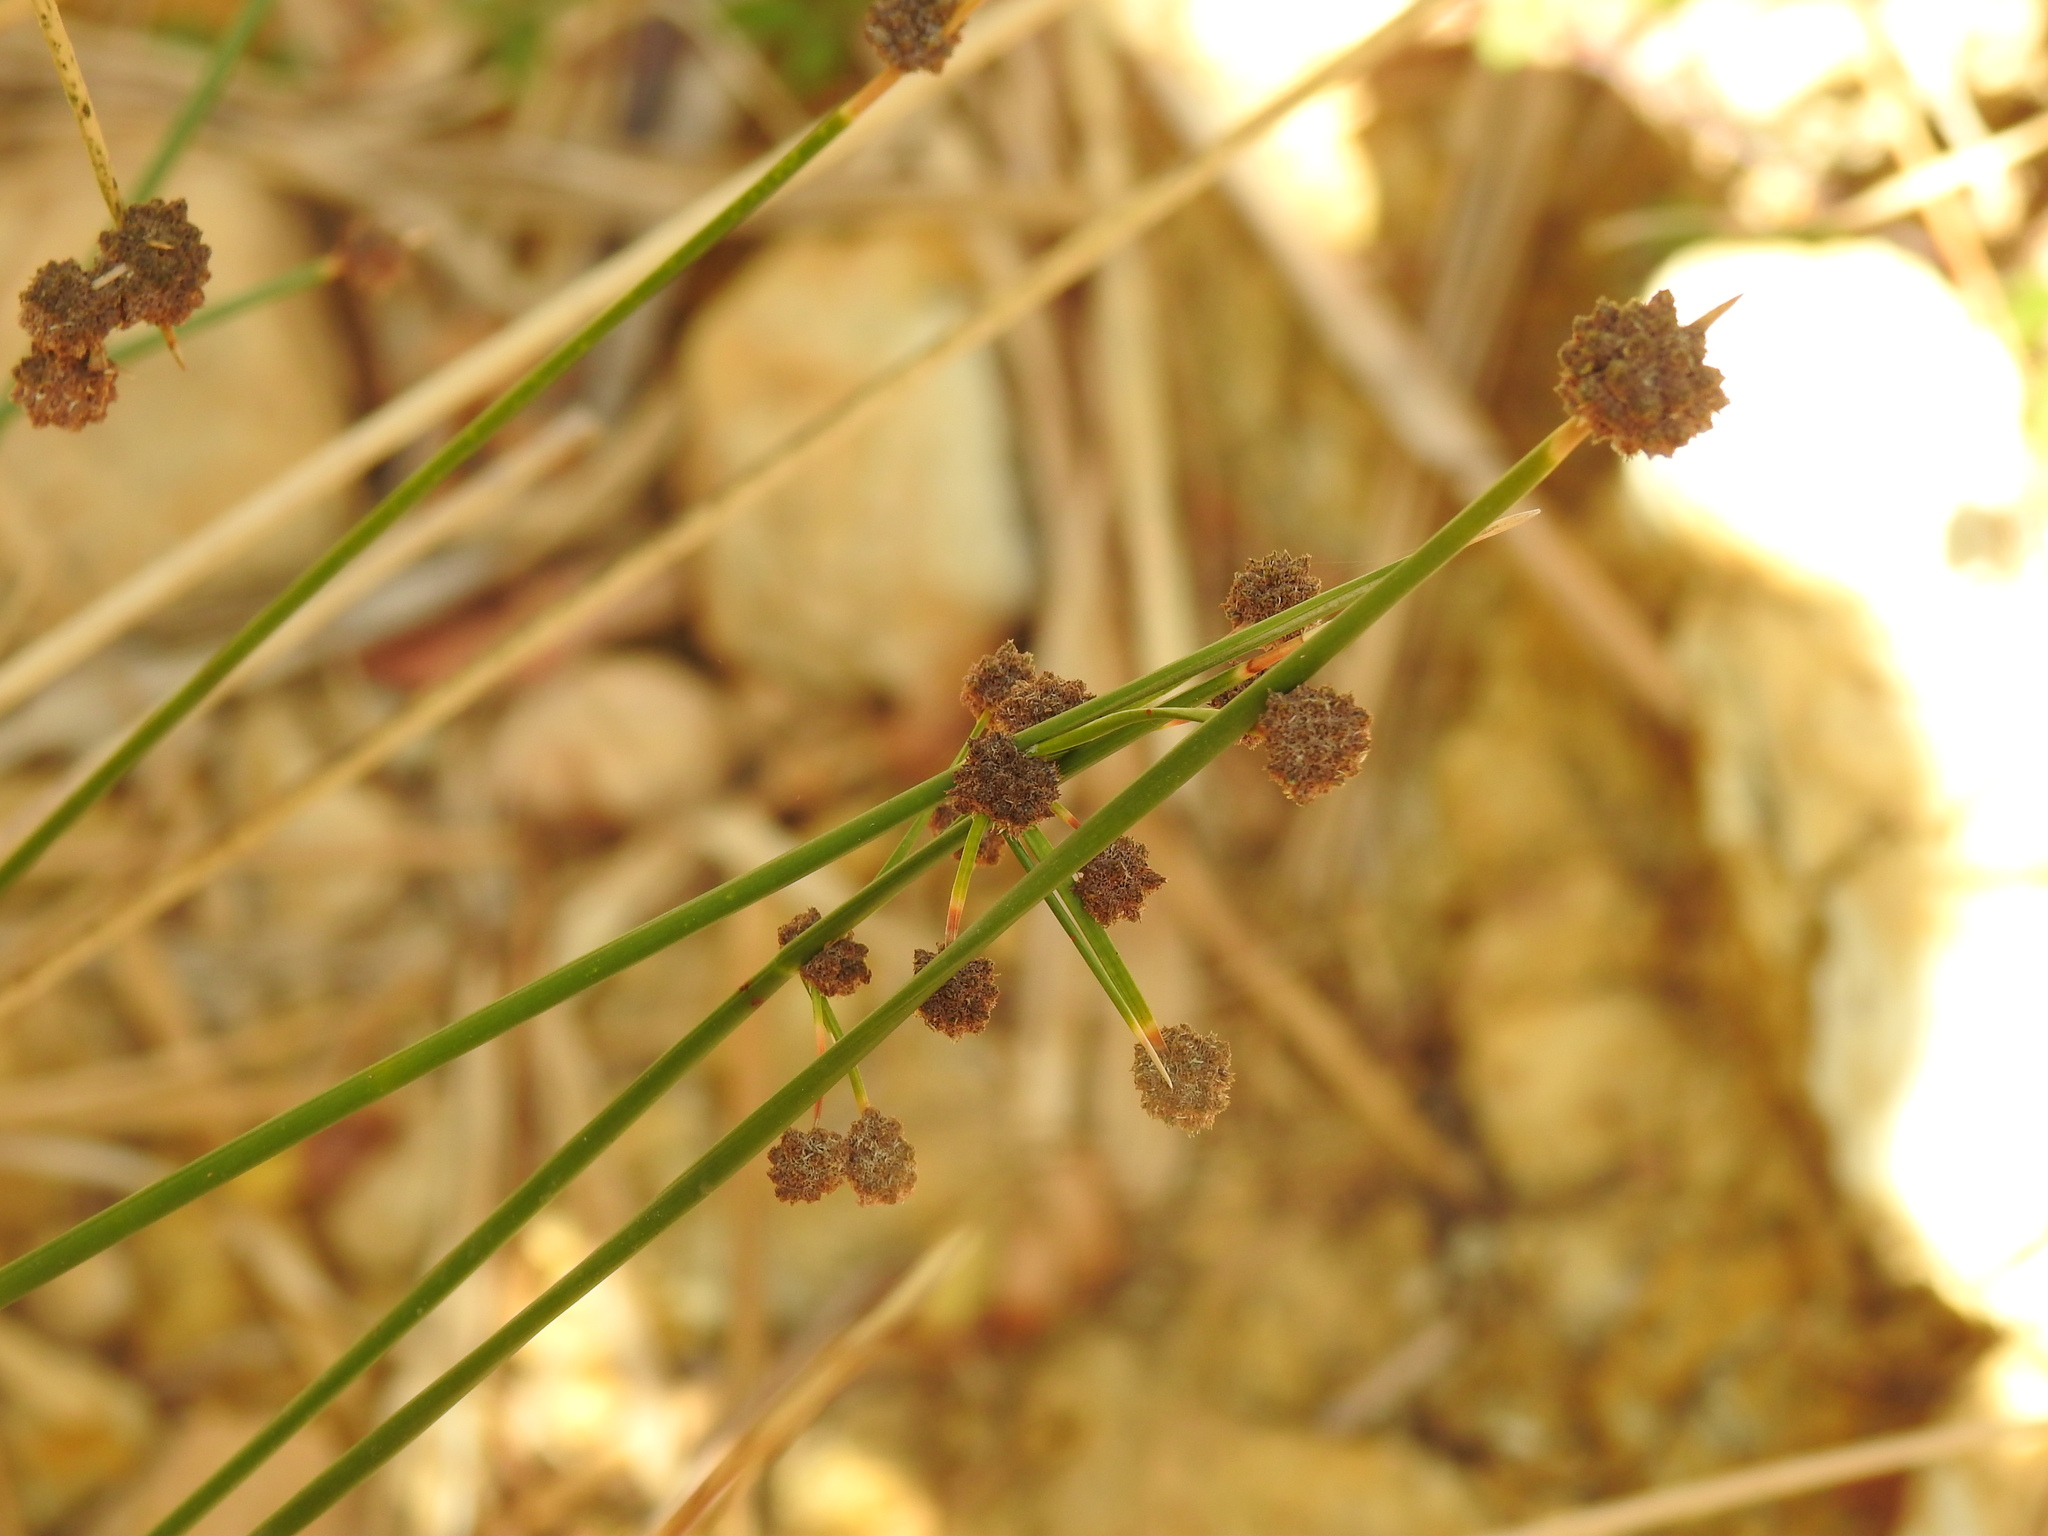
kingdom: Plantae
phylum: Tracheophyta
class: Liliopsida
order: Poales
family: Cyperaceae
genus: Scirpoides
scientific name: Scirpoides holoschoenus
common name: Round-headed club-rush
